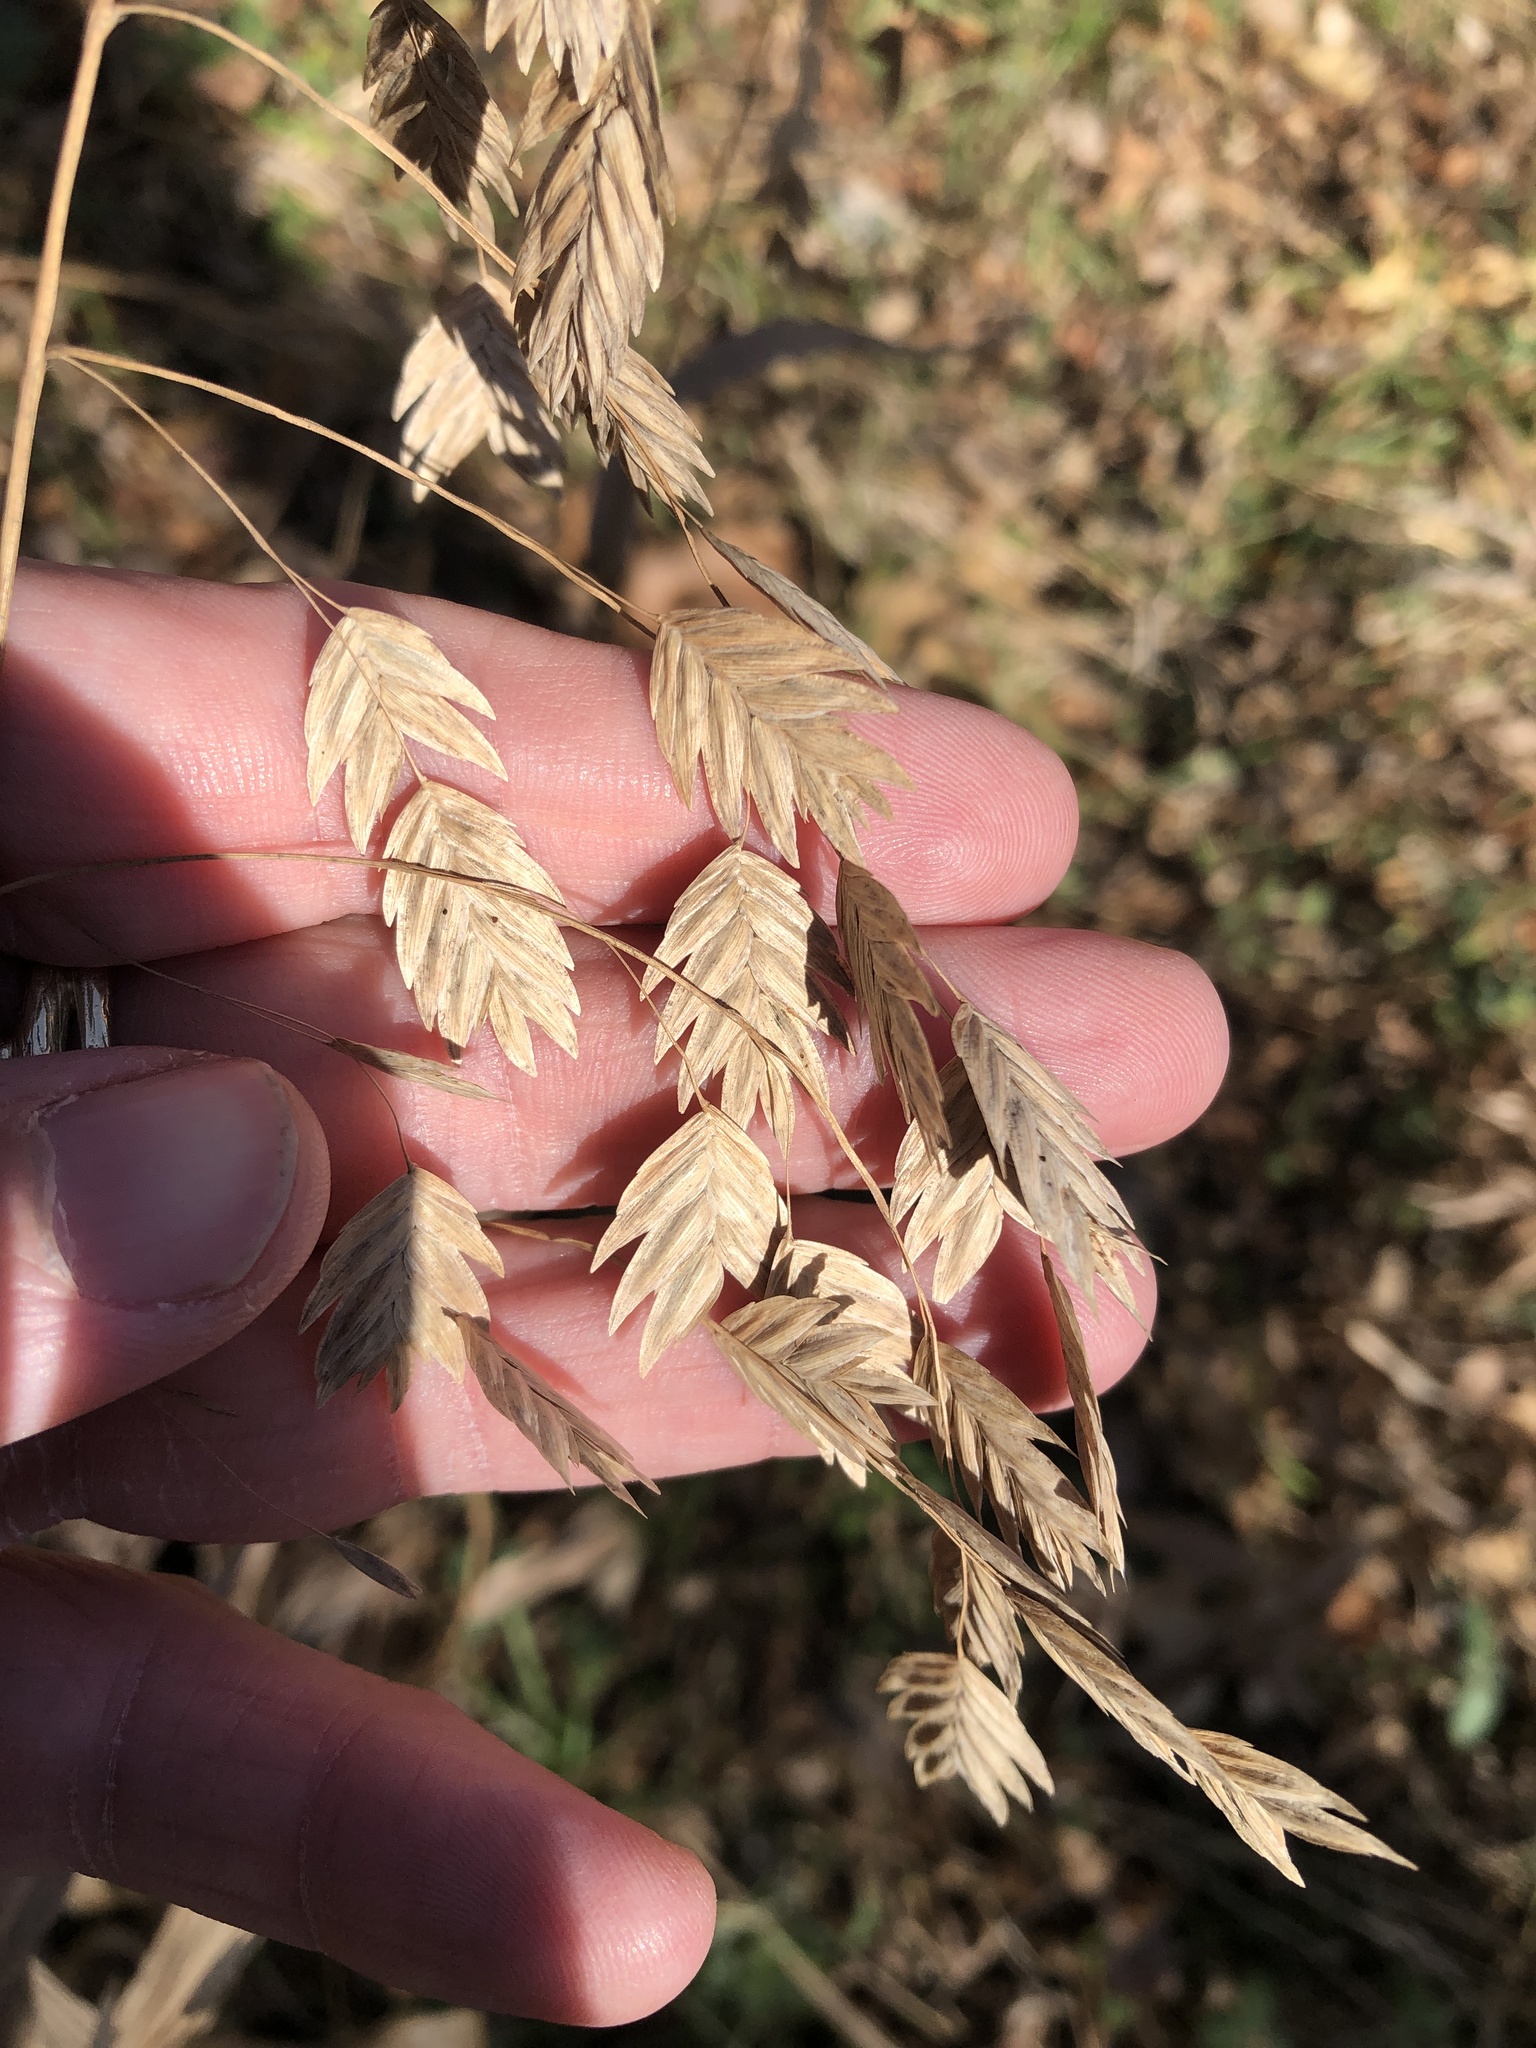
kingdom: Plantae
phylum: Tracheophyta
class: Liliopsida
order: Poales
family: Poaceae
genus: Chasmanthium
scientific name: Chasmanthium latifolium
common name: Broad-leaved chasmanthium
